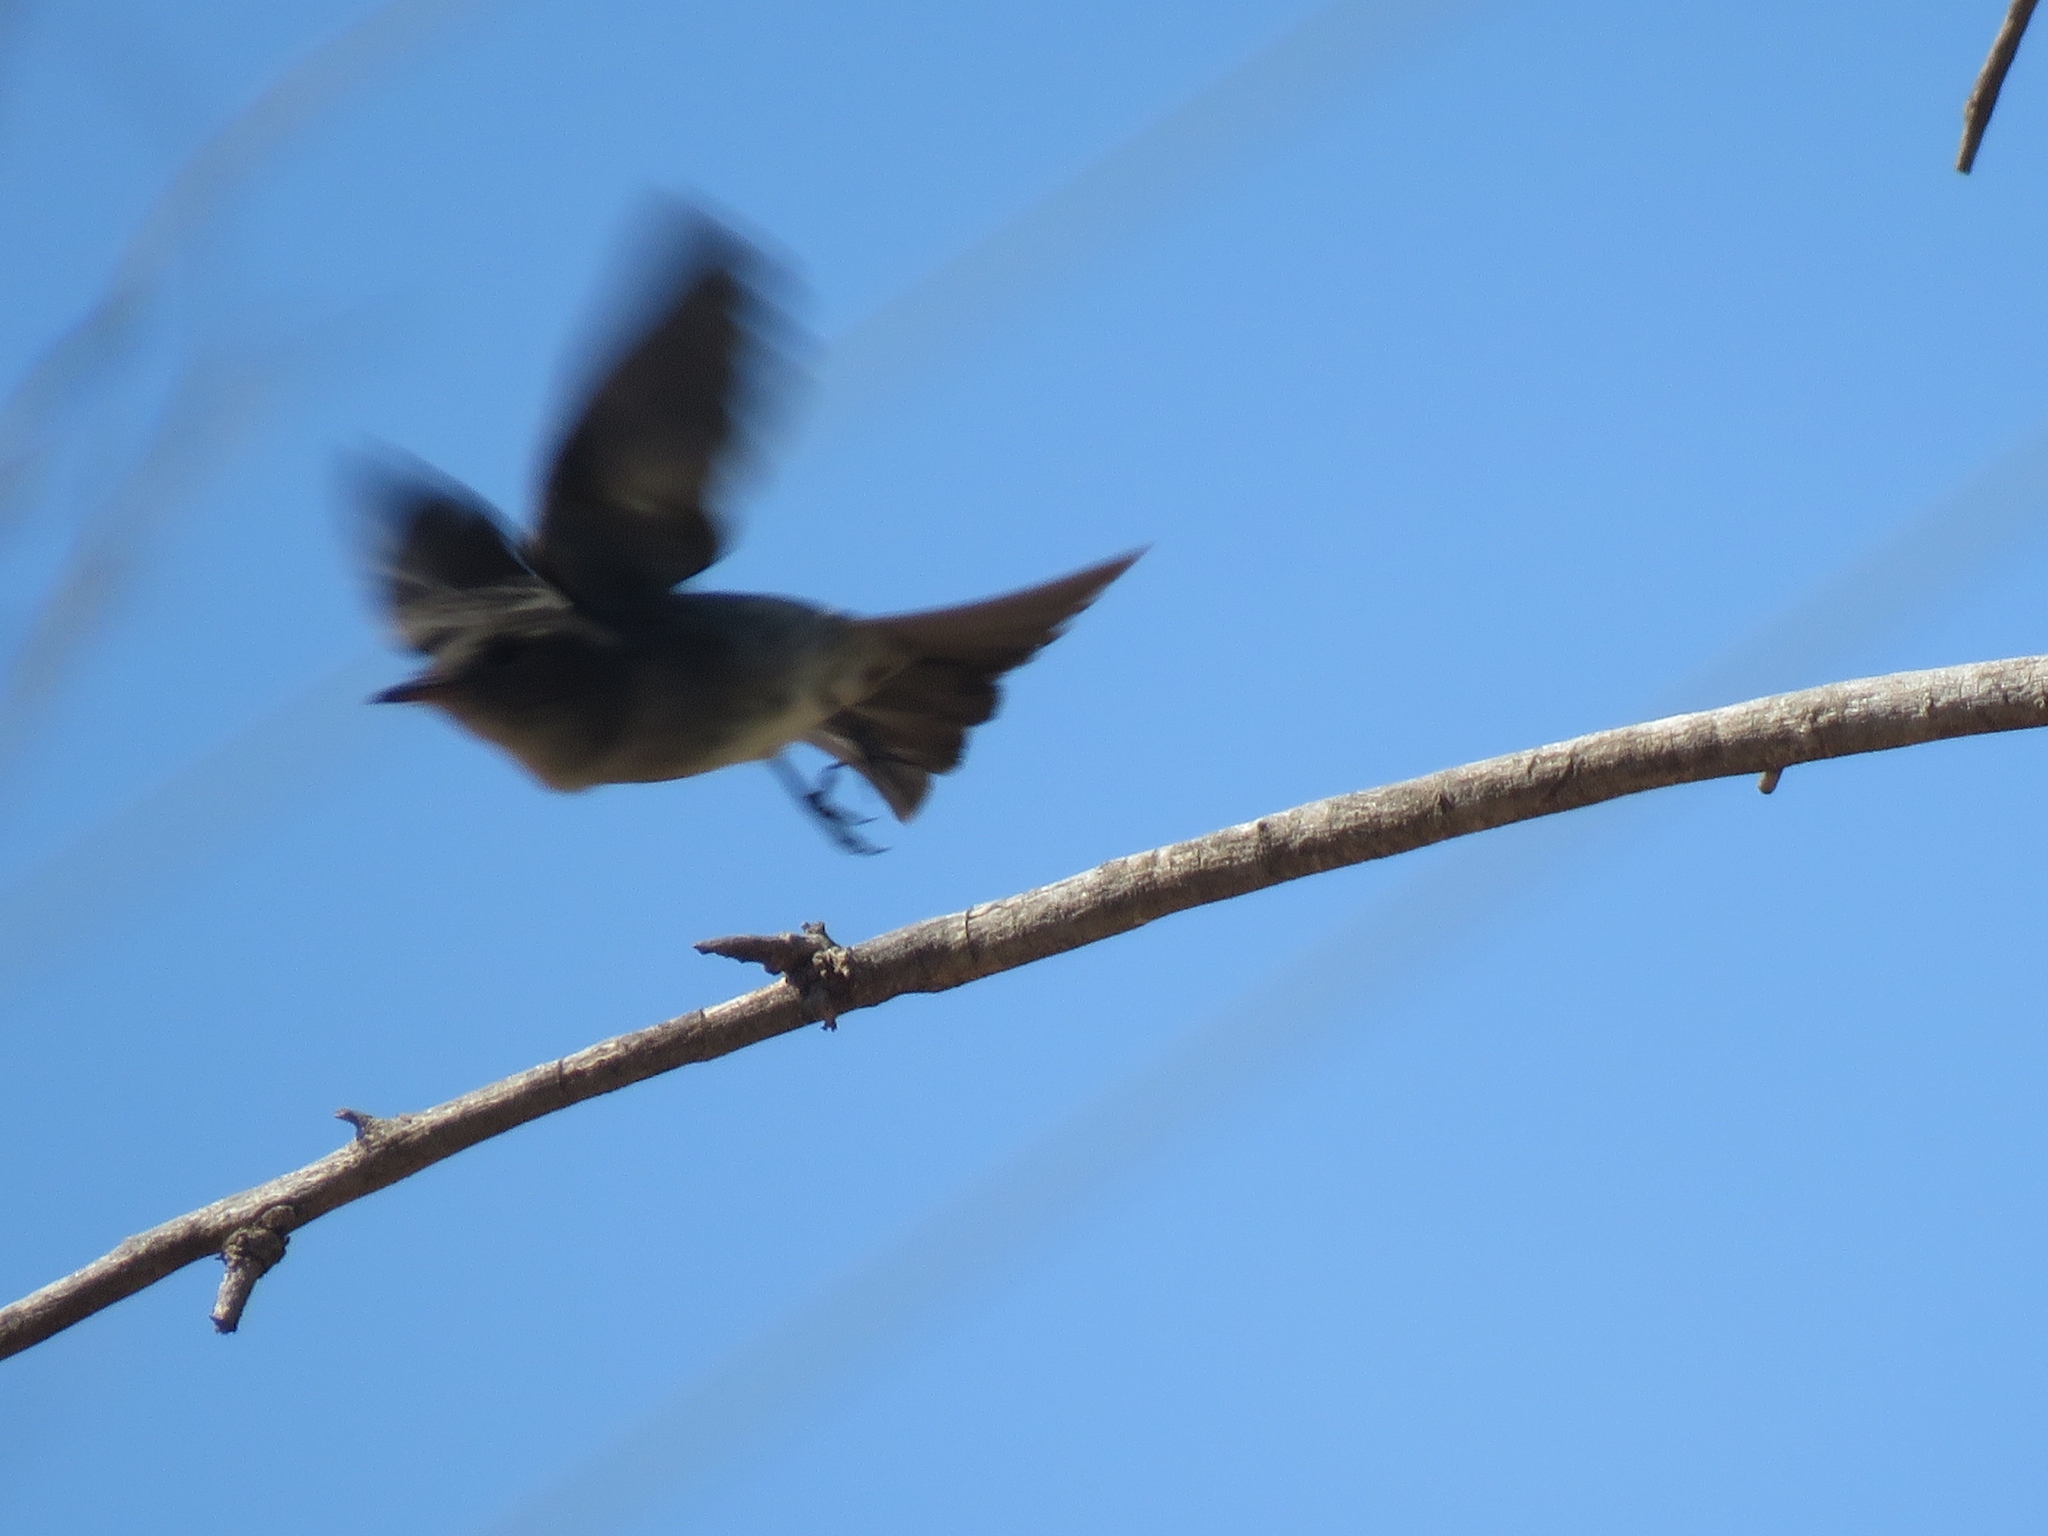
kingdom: Animalia
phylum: Chordata
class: Aves
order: Passeriformes
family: Tyrannidae
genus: Contopus
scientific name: Contopus sordidulus
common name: Western wood-pewee
